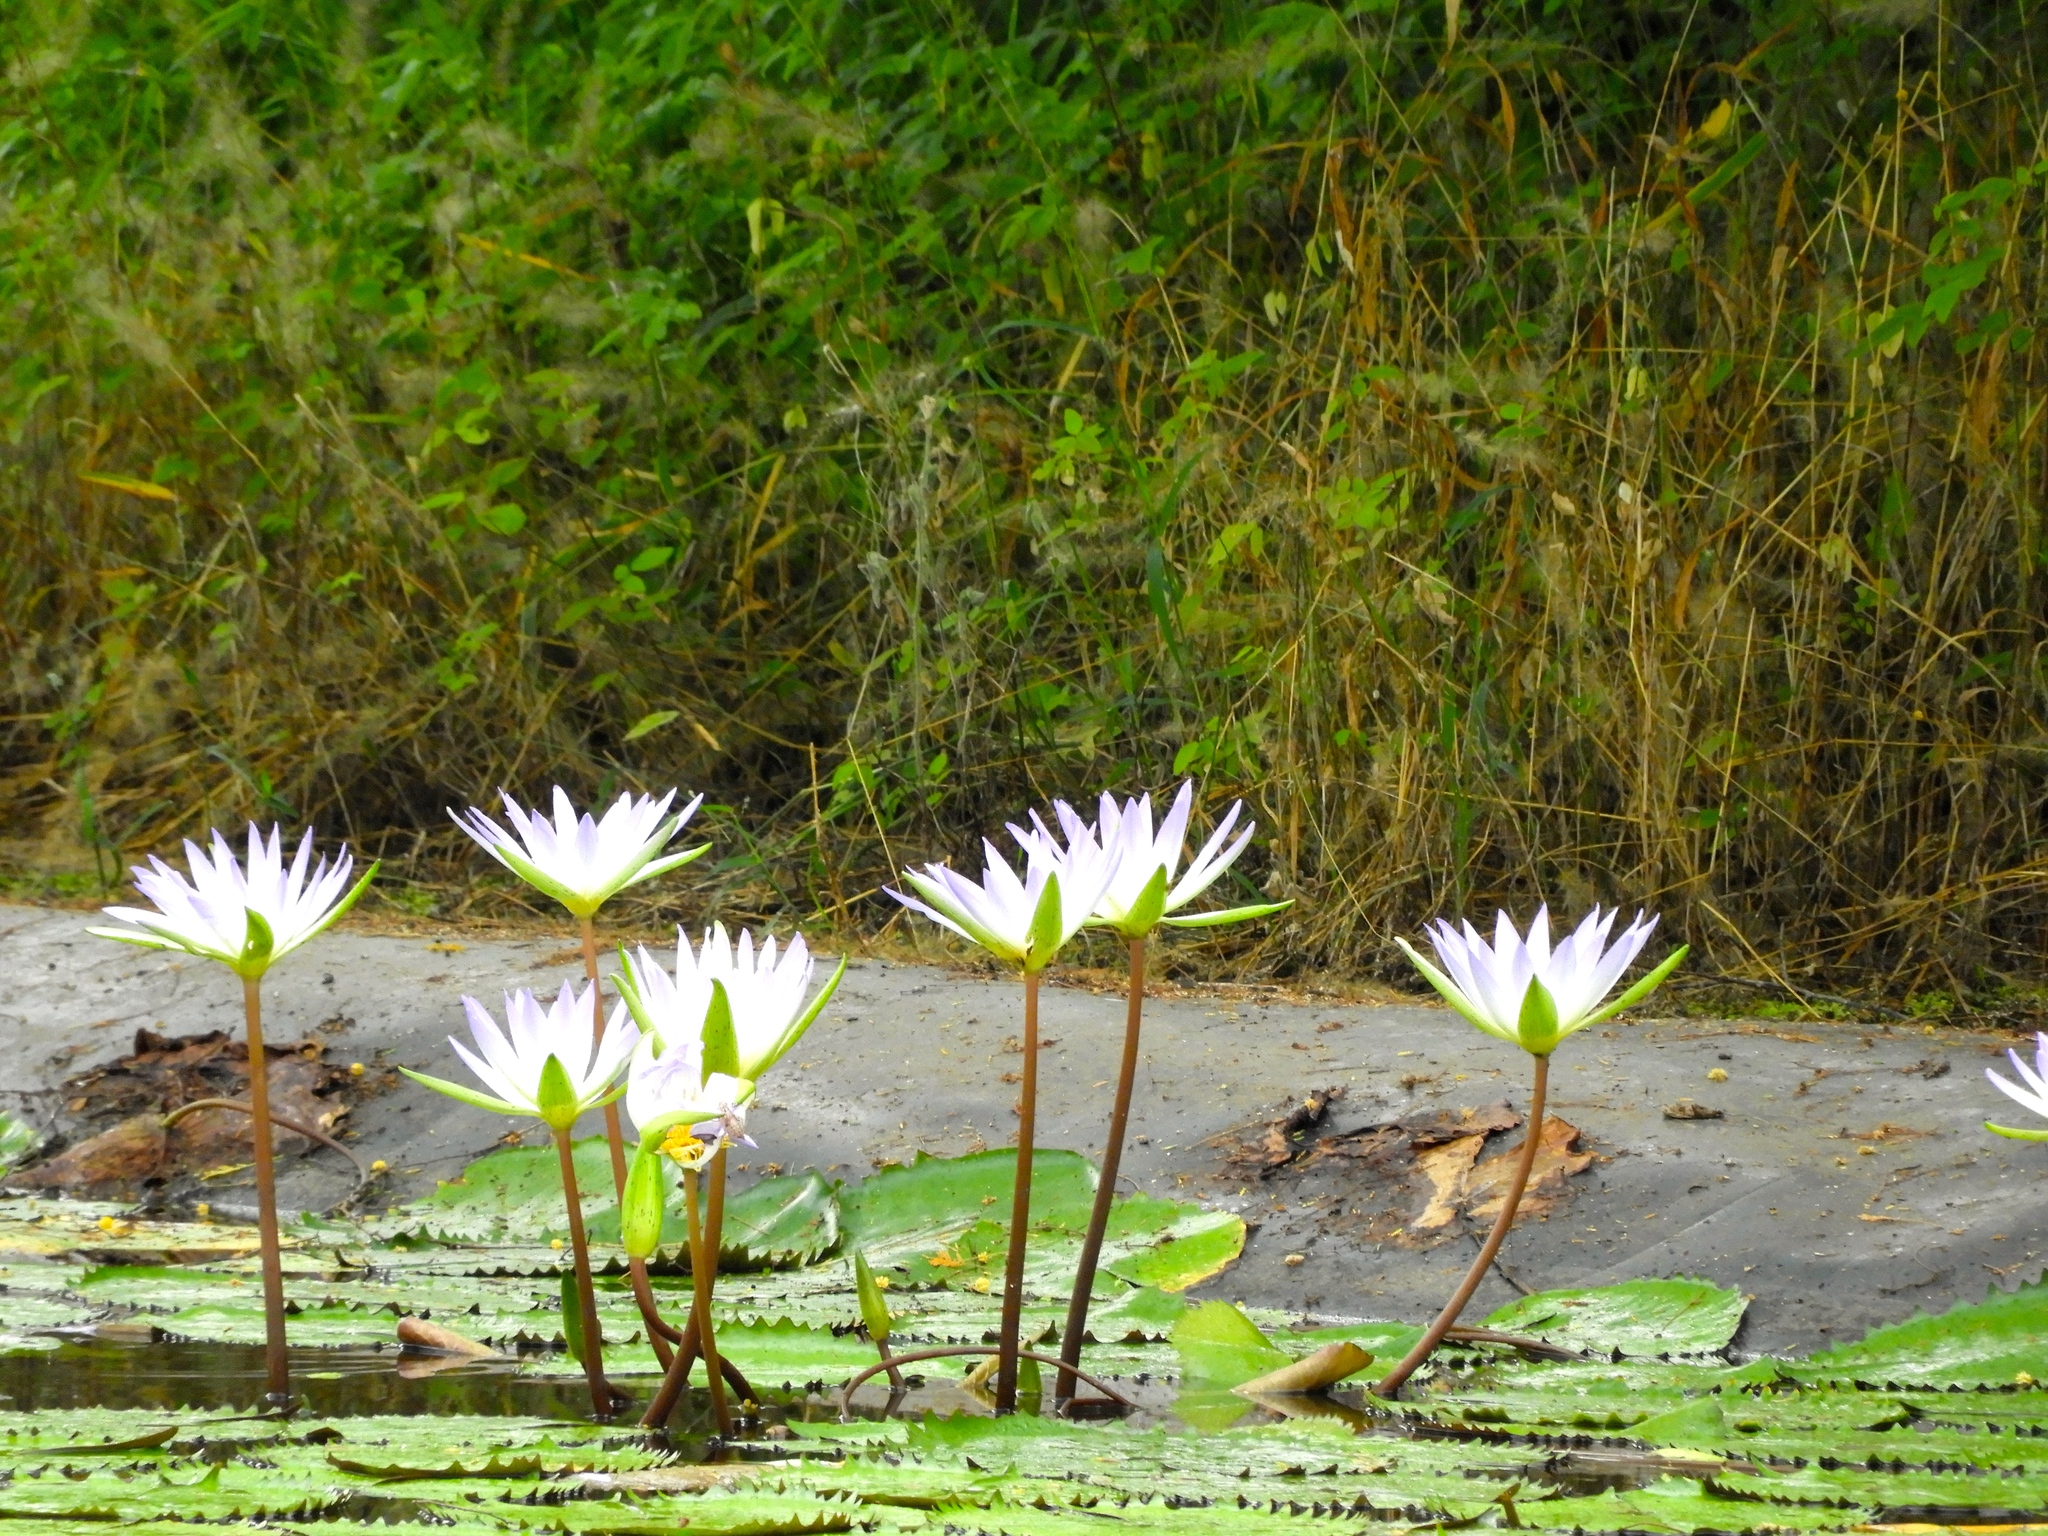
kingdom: Plantae
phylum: Tracheophyta
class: Magnoliopsida
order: Nymphaeales
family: Nymphaeaceae
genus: Nymphaea
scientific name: Nymphaea elegans
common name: Blue water-lily
